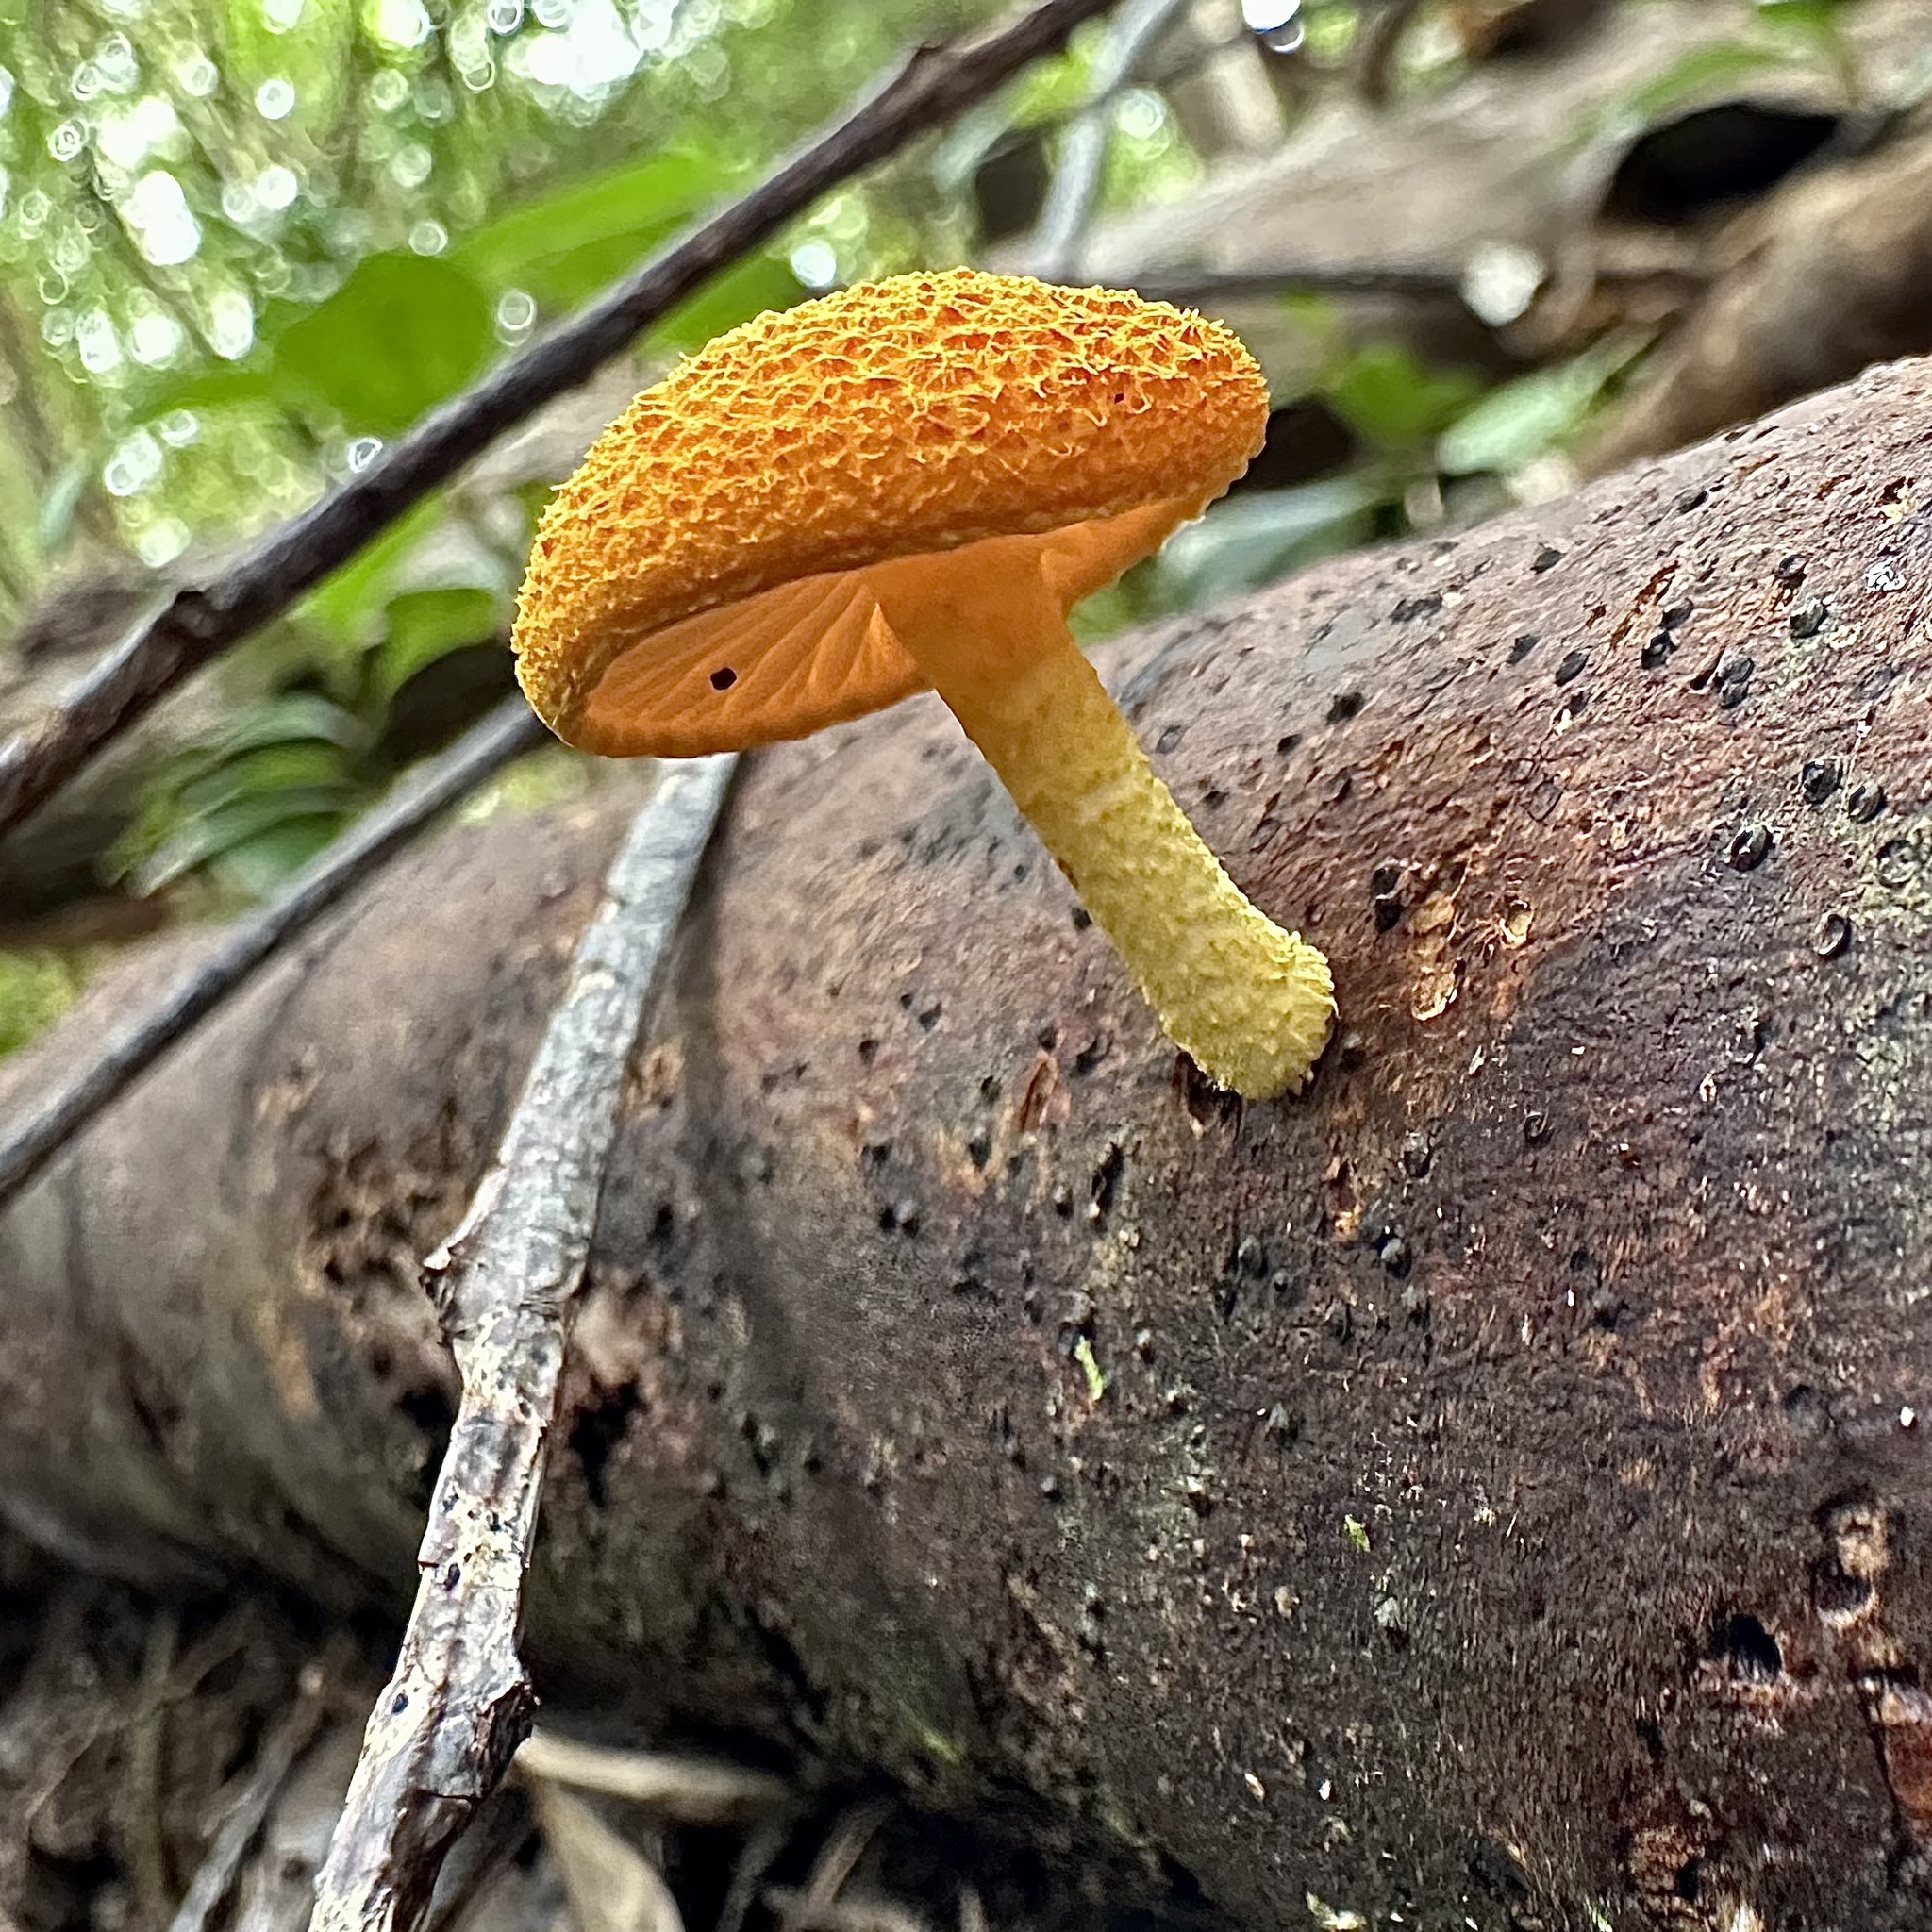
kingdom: Fungi
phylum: Basidiomycota
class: Agaricomycetes
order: Agaricales
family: Physalacriaceae
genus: Cyptotrama
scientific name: Cyptotrama asprata
